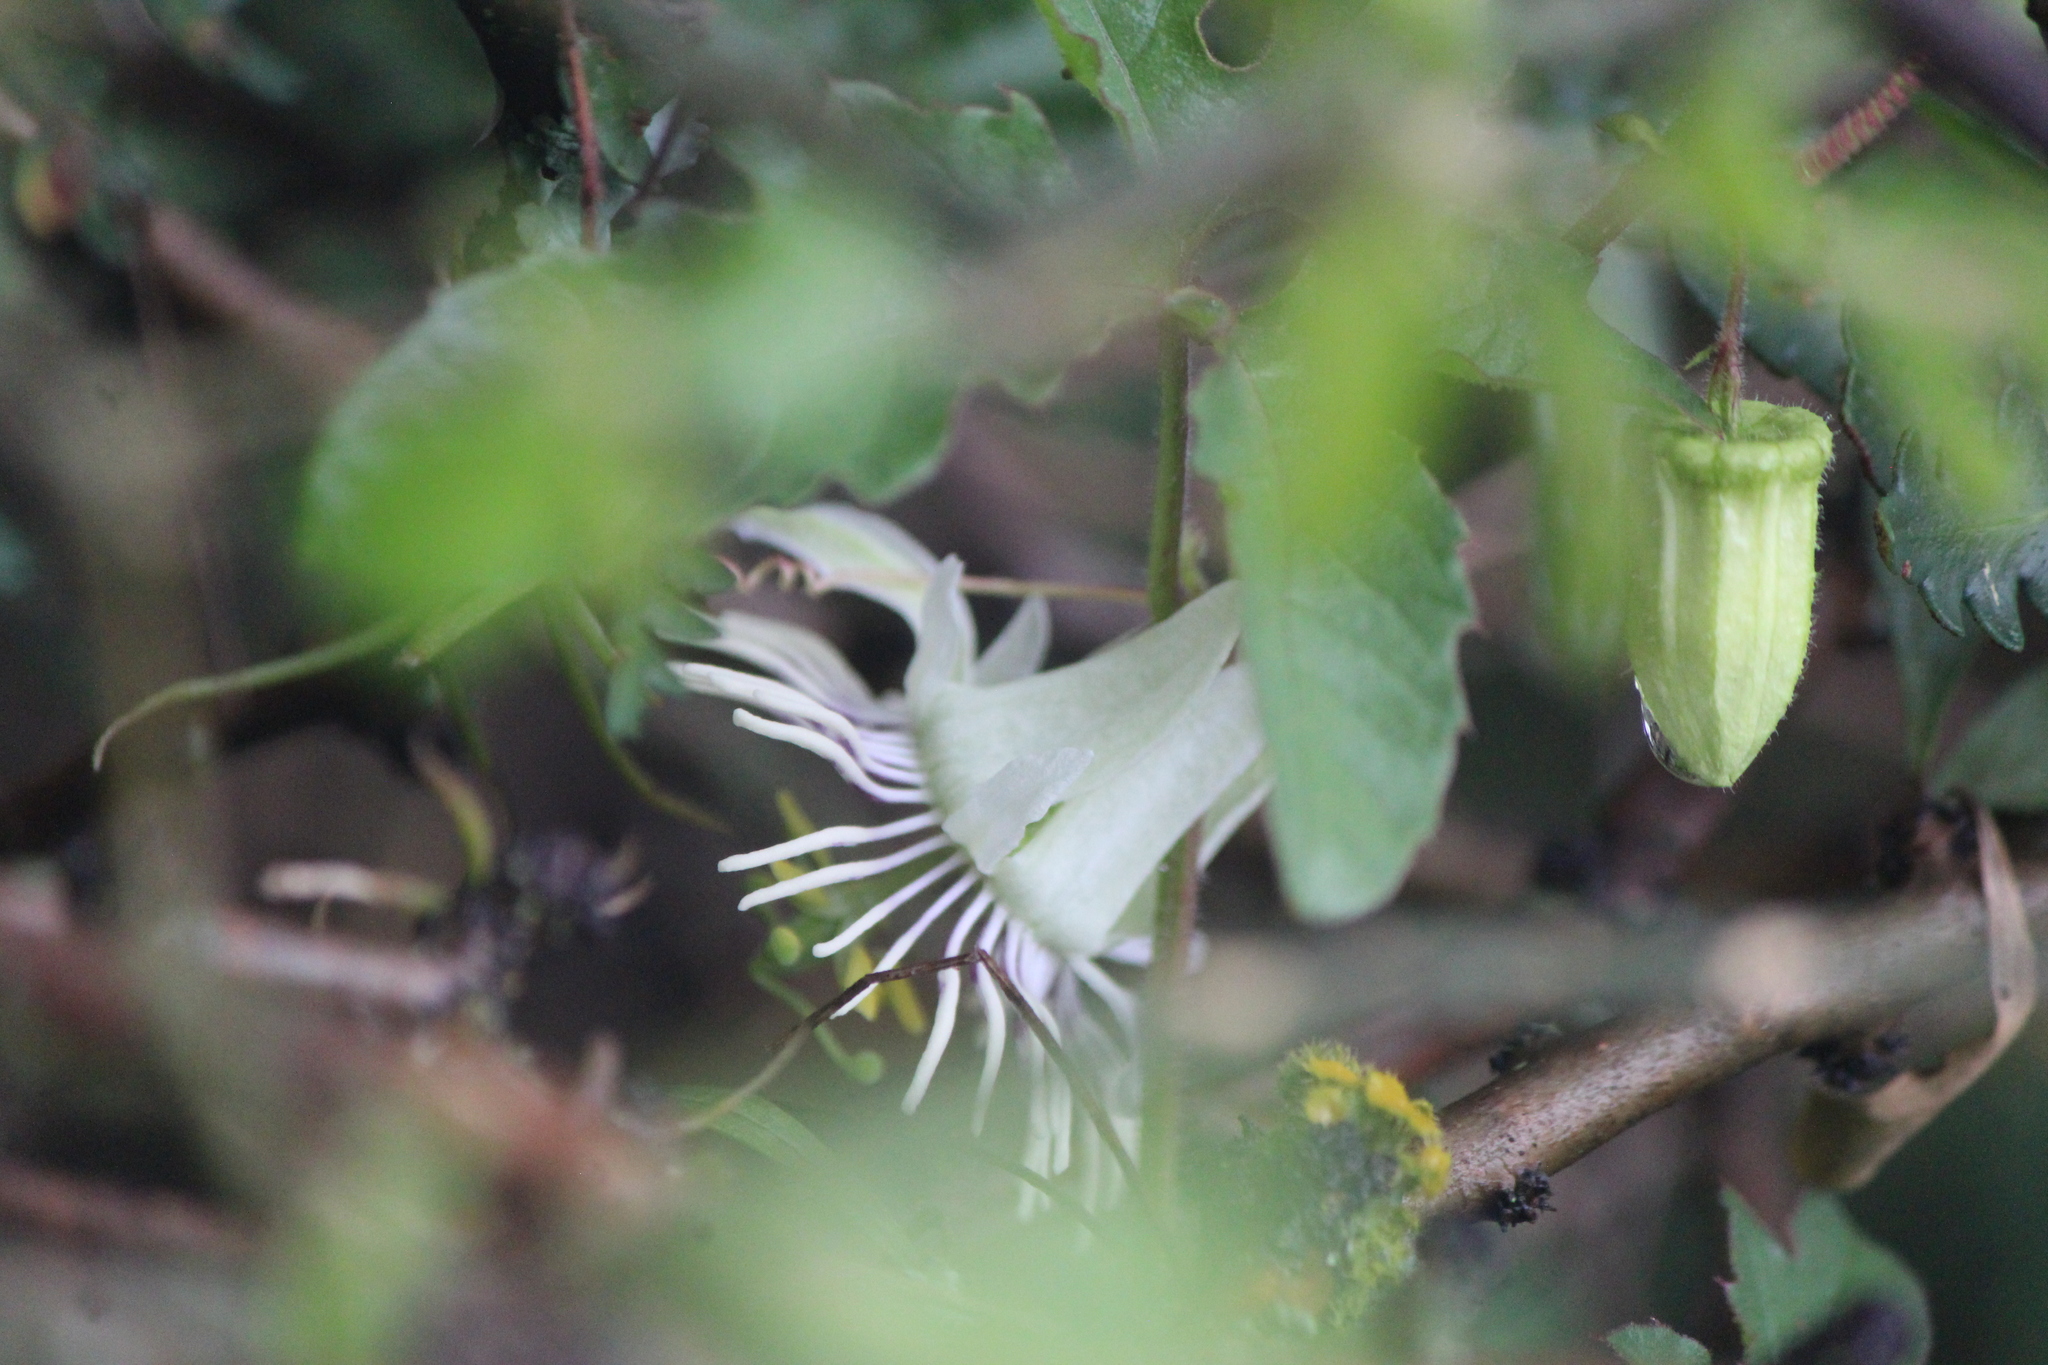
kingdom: Plantae
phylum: Tracheophyta
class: Magnoliopsida
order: Malpighiales
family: Passifloraceae
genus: Passiflora
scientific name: Passiflora bryonioides
